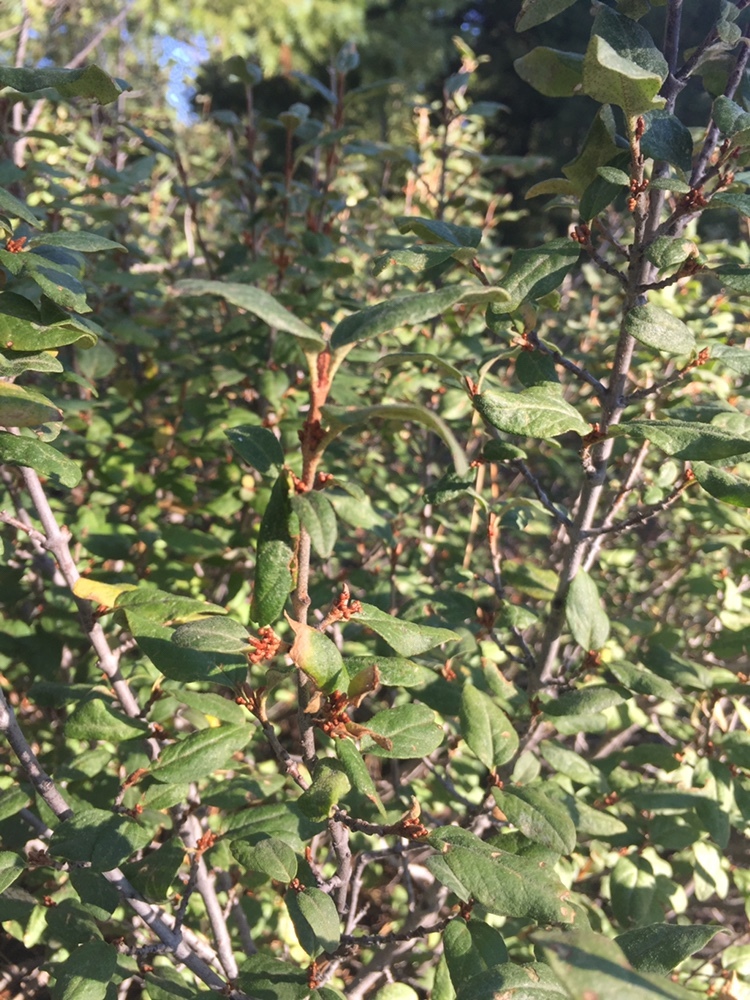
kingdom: Plantae
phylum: Tracheophyta
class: Magnoliopsida
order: Rosales
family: Elaeagnaceae
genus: Shepherdia
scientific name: Shepherdia canadensis
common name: Soapberry
